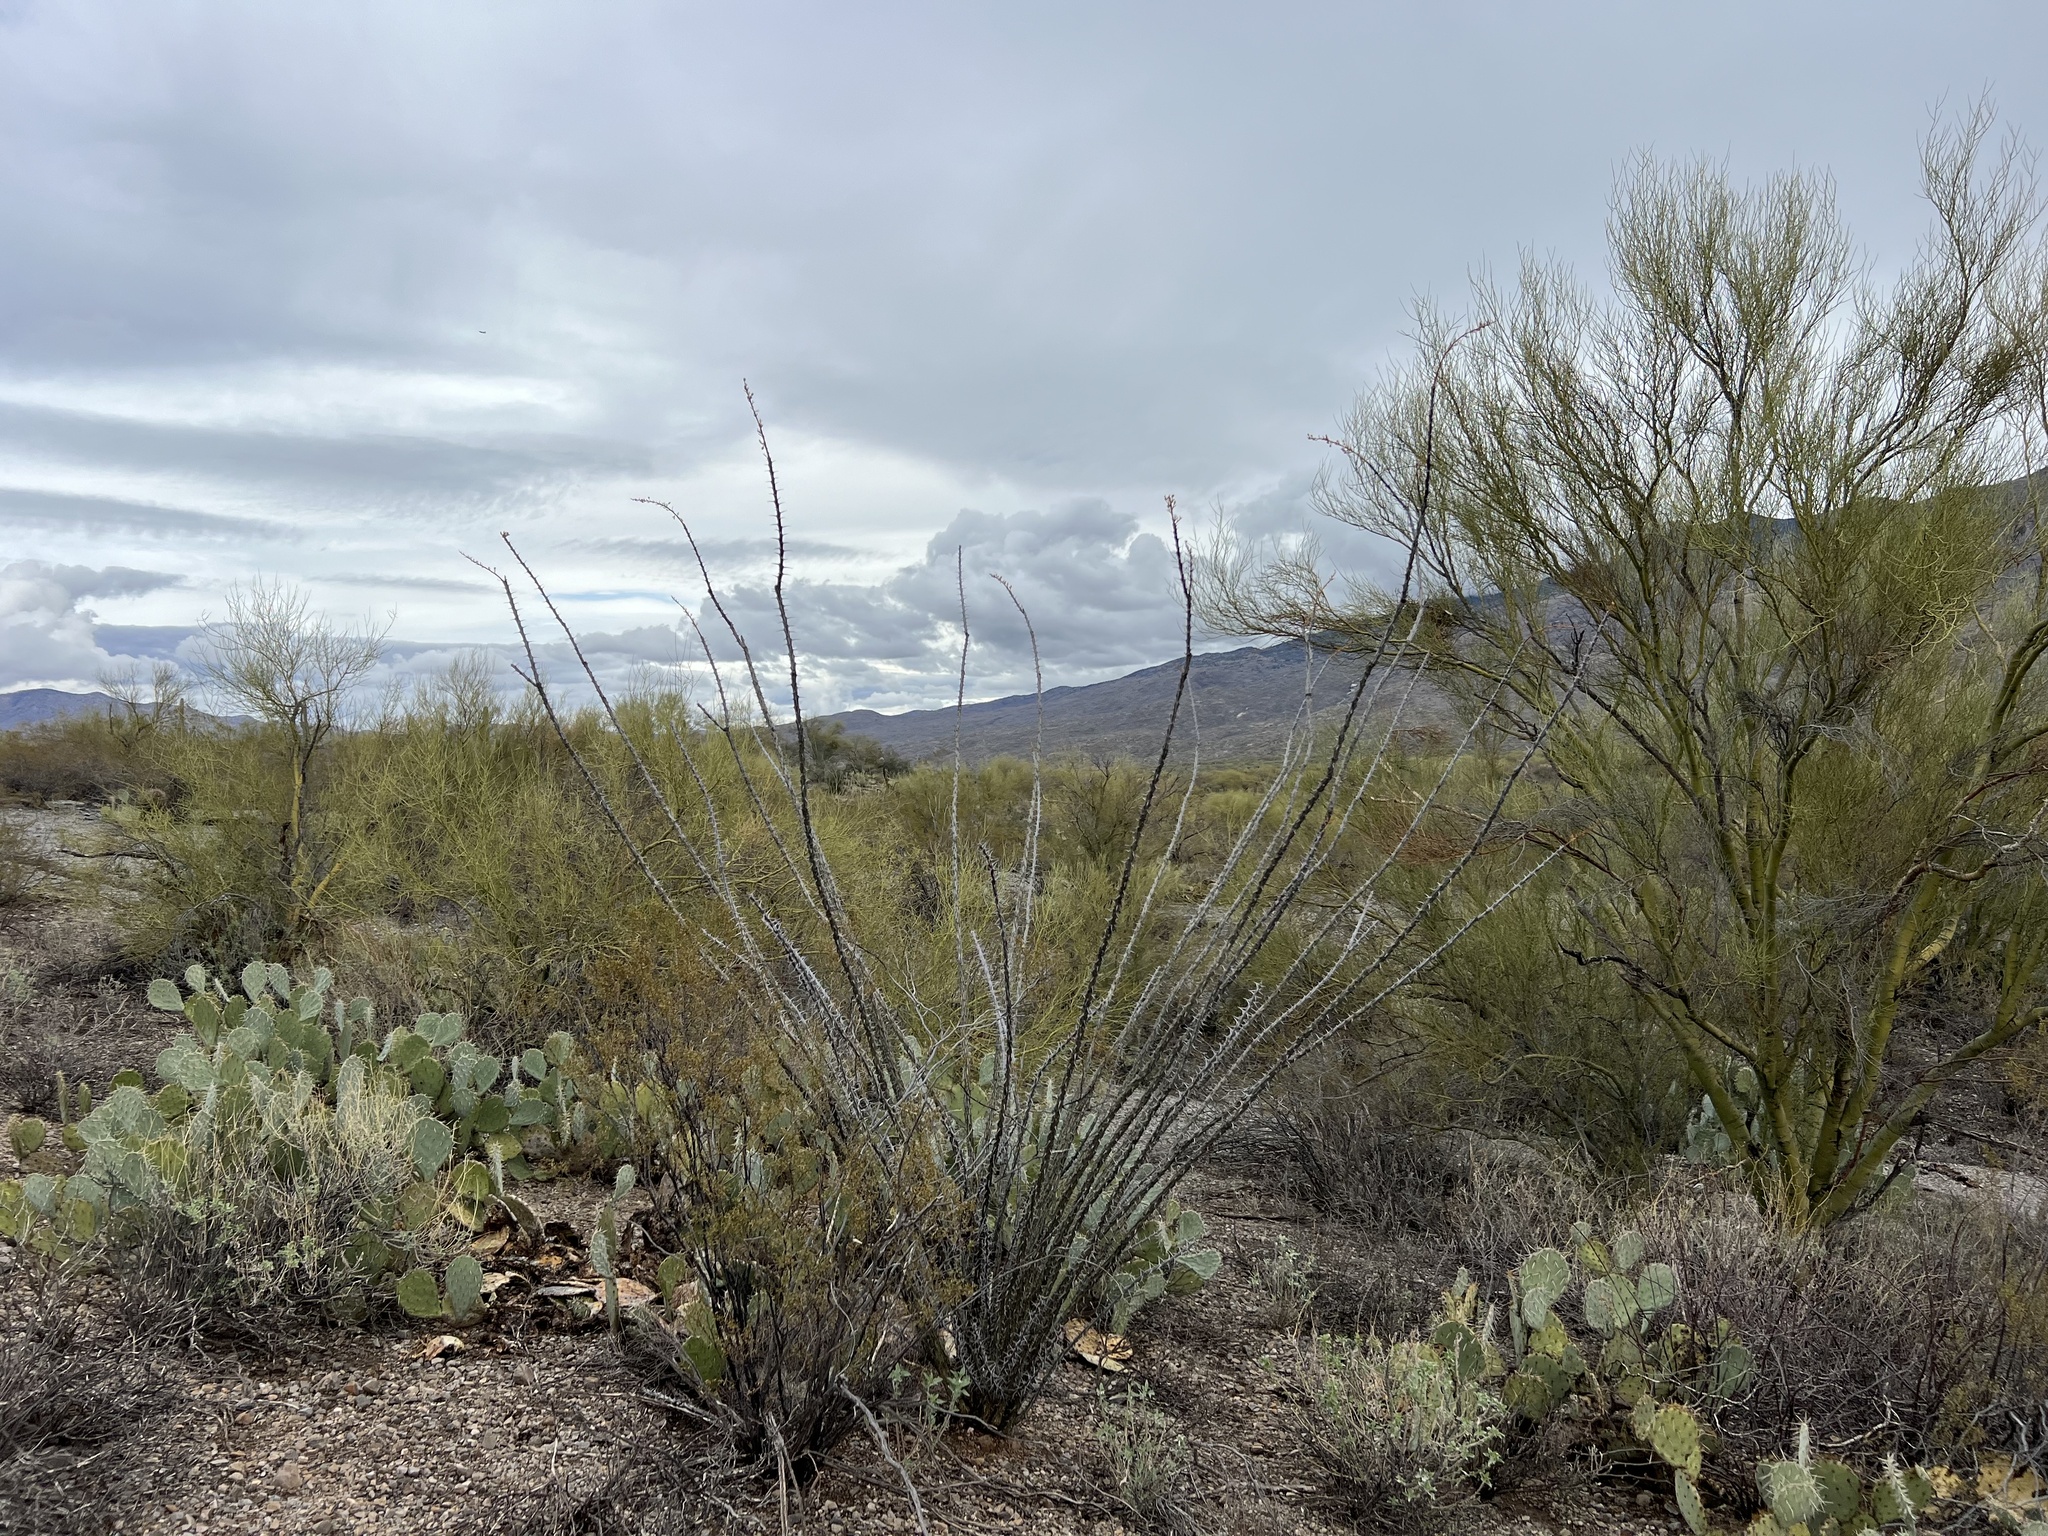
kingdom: Plantae
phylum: Tracheophyta
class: Magnoliopsida
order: Ericales
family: Fouquieriaceae
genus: Fouquieria
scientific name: Fouquieria splendens
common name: Vine-cactus
